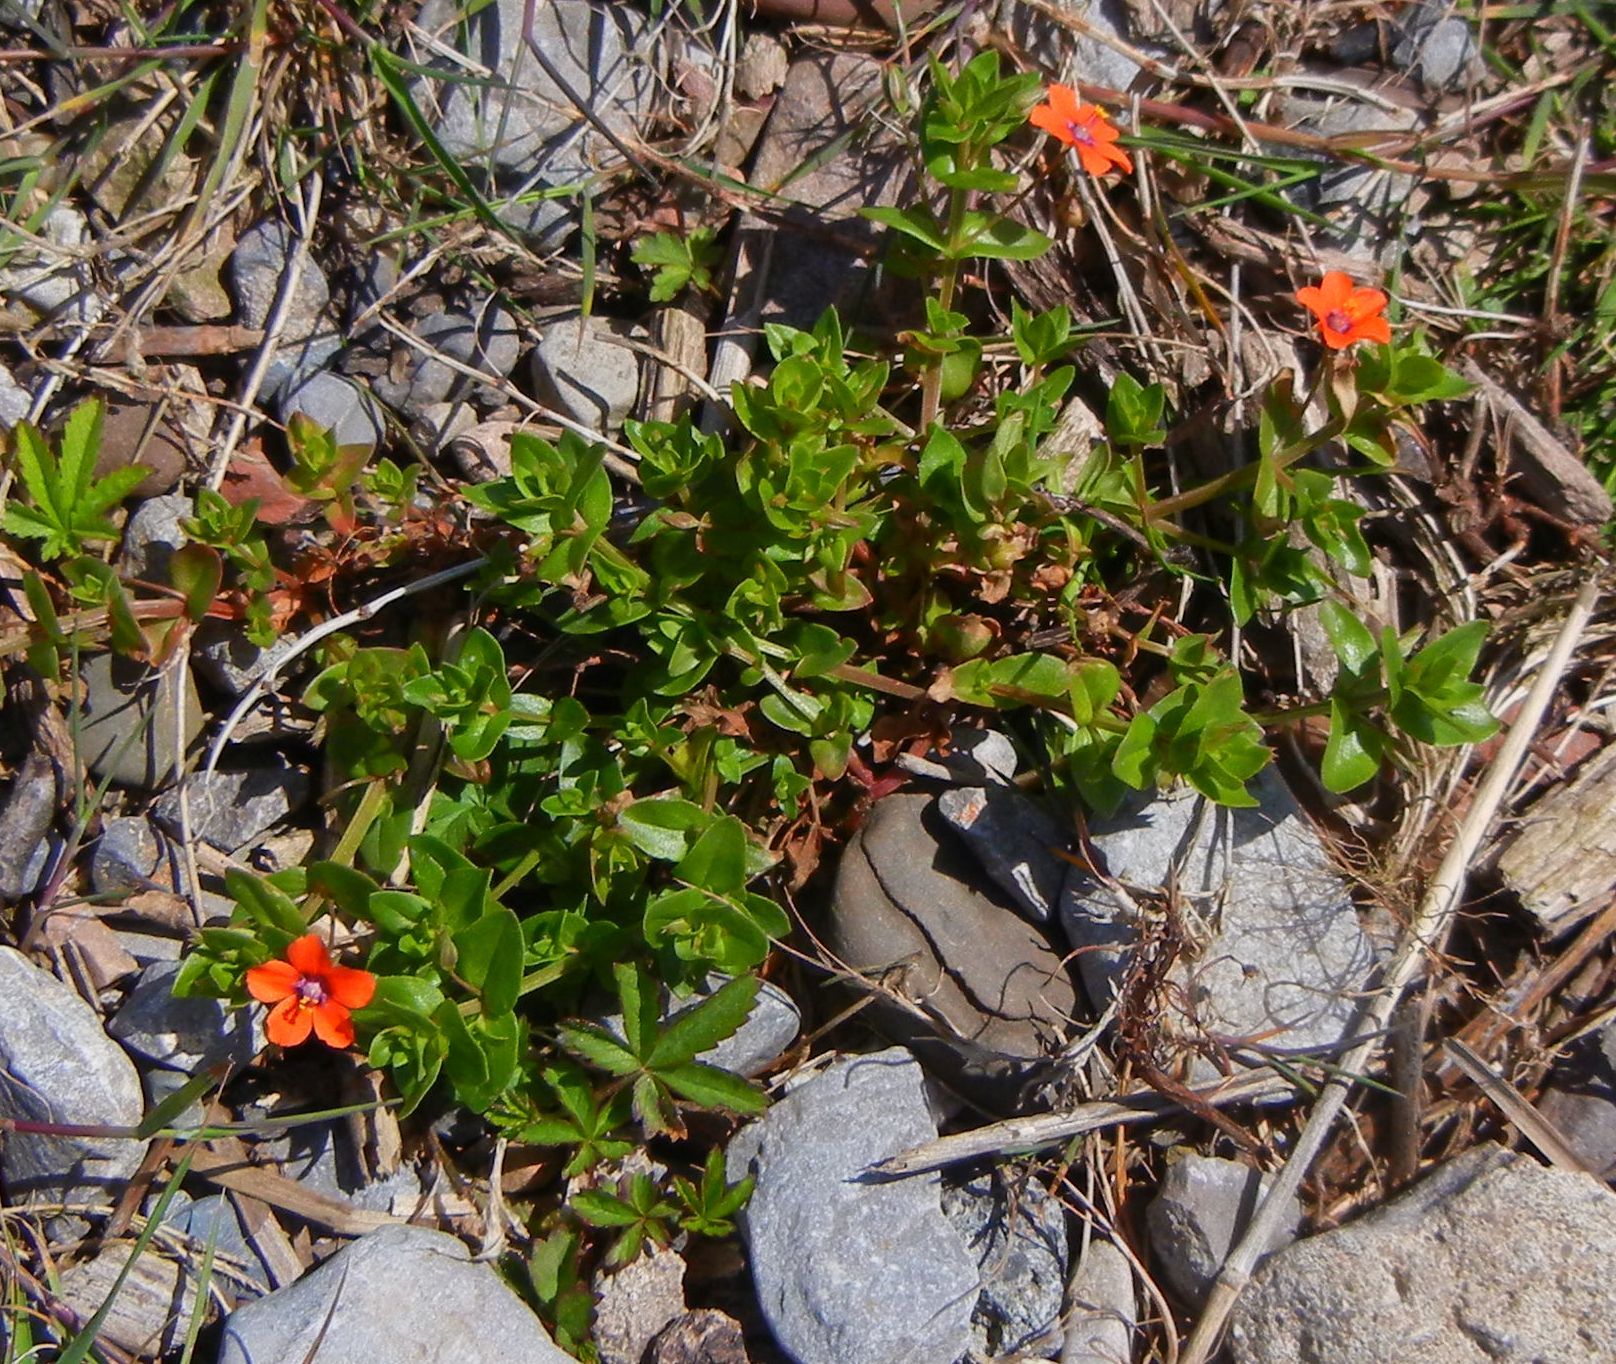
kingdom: Plantae
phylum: Tracheophyta
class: Magnoliopsida
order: Ericales
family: Primulaceae
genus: Lysimachia
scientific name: Lysimachia arvensis
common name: Scarlet pimpernel
